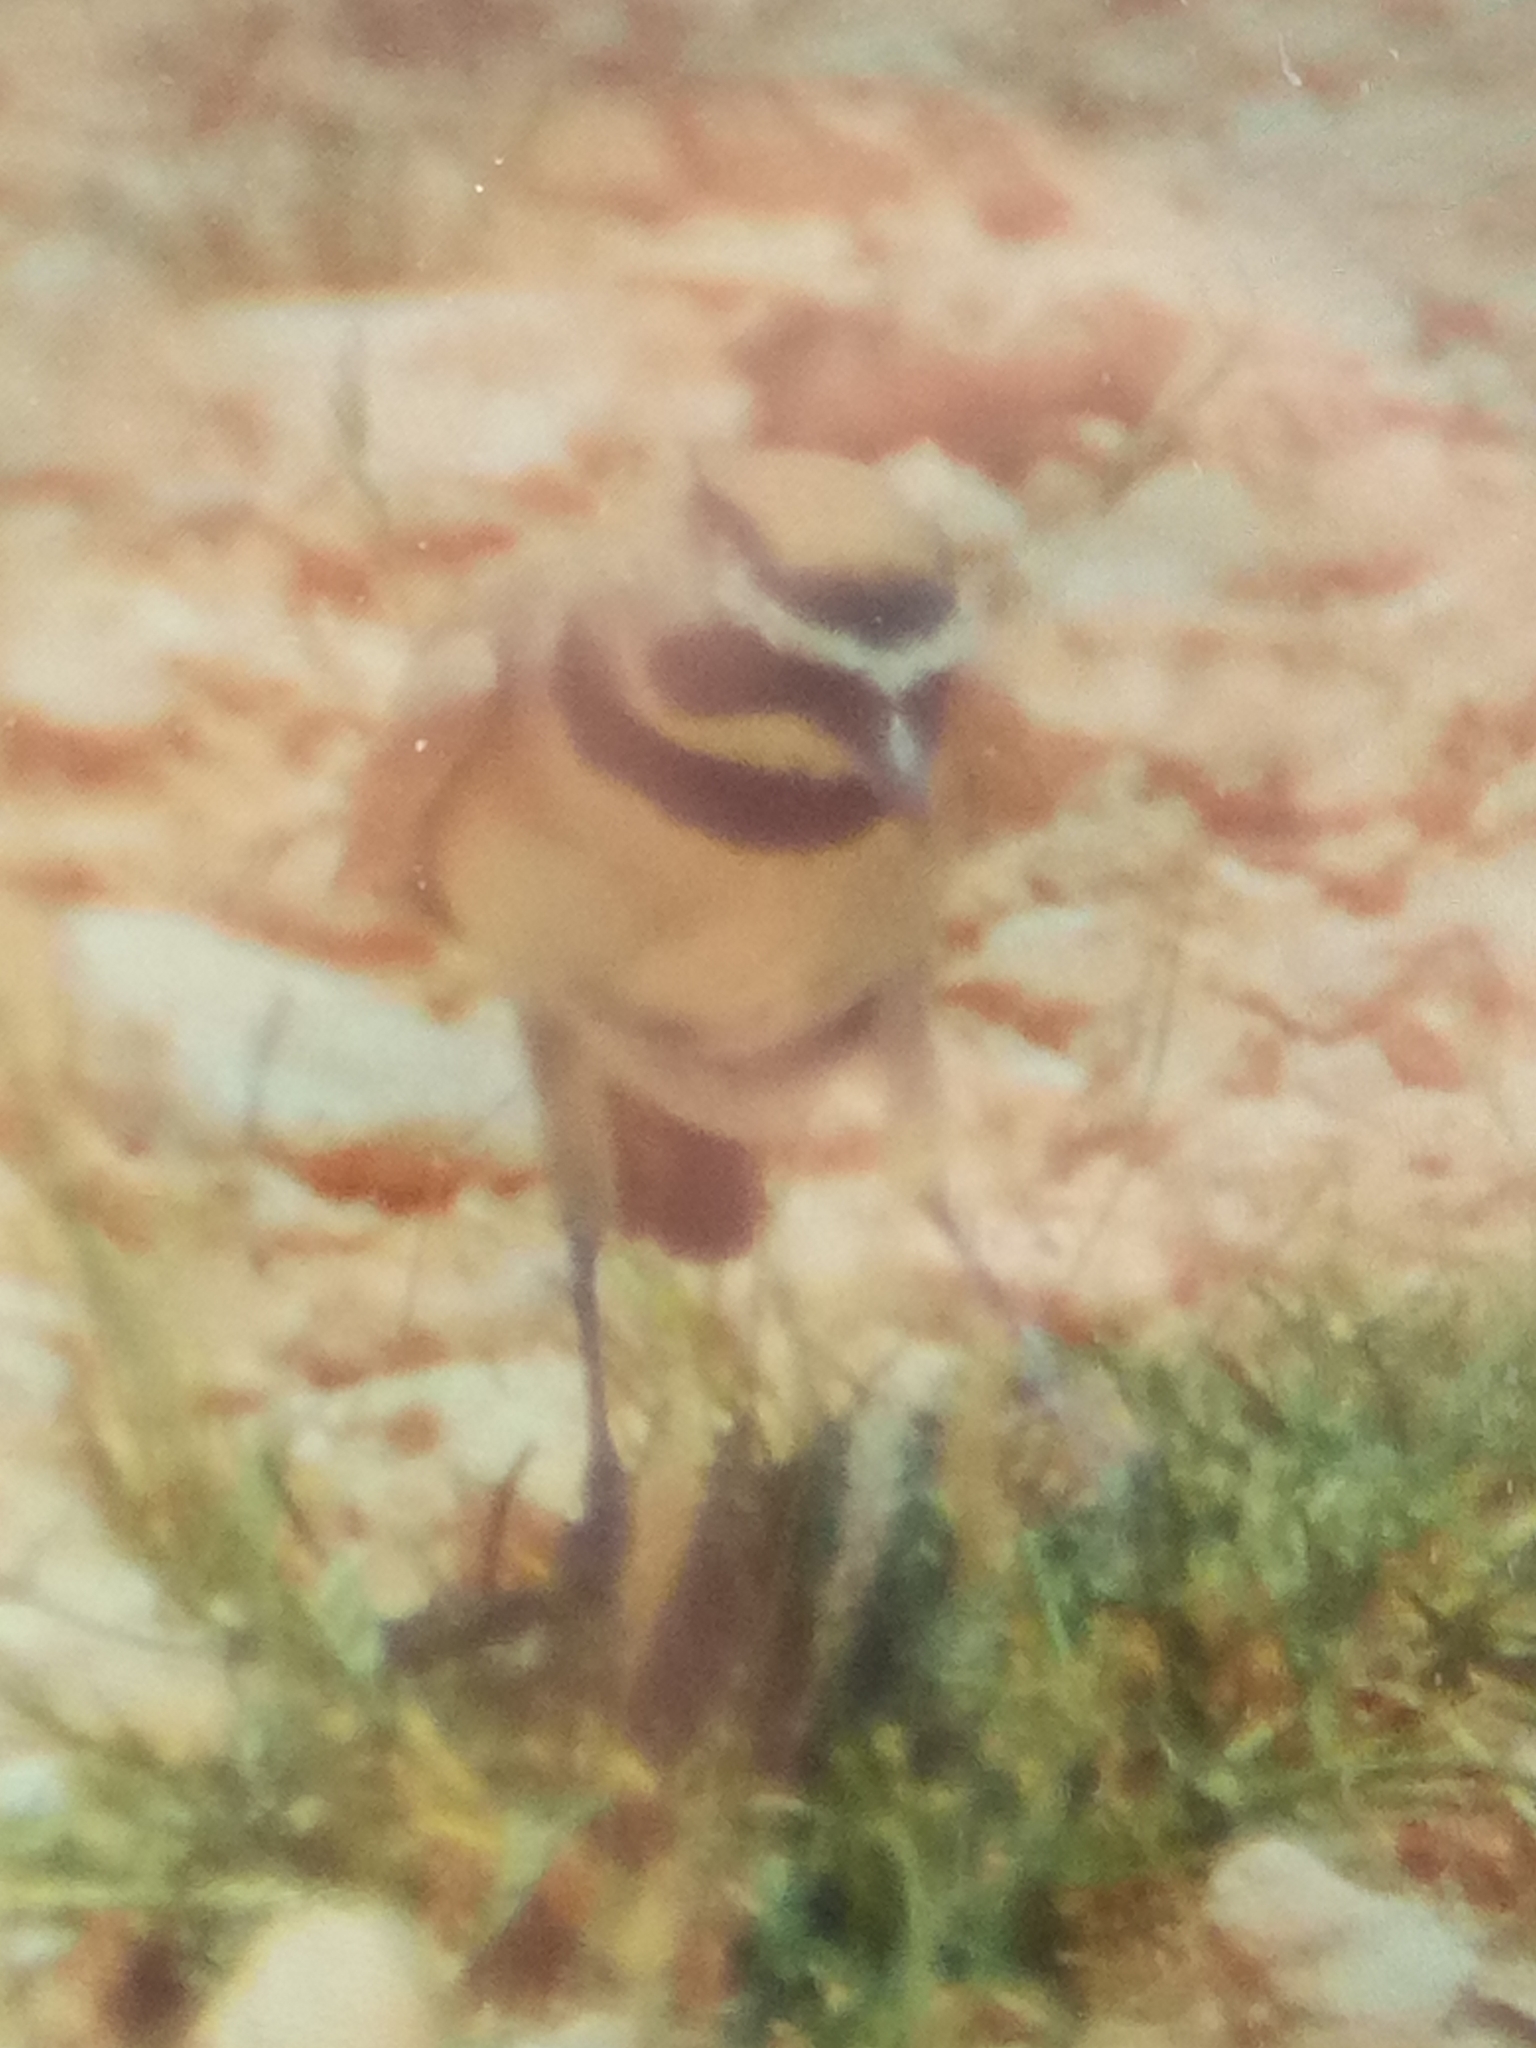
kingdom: Animalia
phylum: Chordata
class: Aves
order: Passeriformes
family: Alaudidae
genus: Eremophila
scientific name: Eremophila bilopha
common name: Temminck's lark
